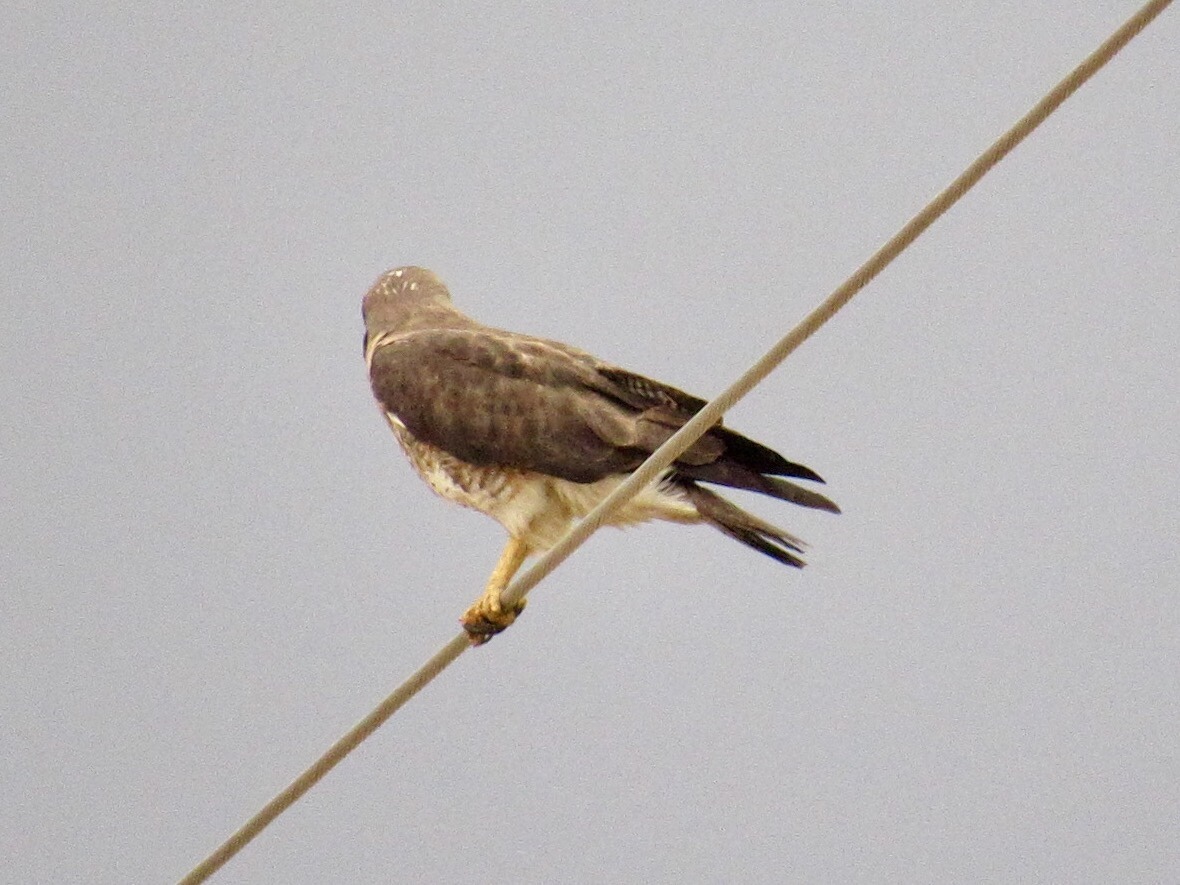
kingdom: Animalia
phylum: Chordata
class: Aves
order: Accipitriformes
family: Accipitridae
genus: Buteo
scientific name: Buteo swainsoni
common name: Swainson's hawk
